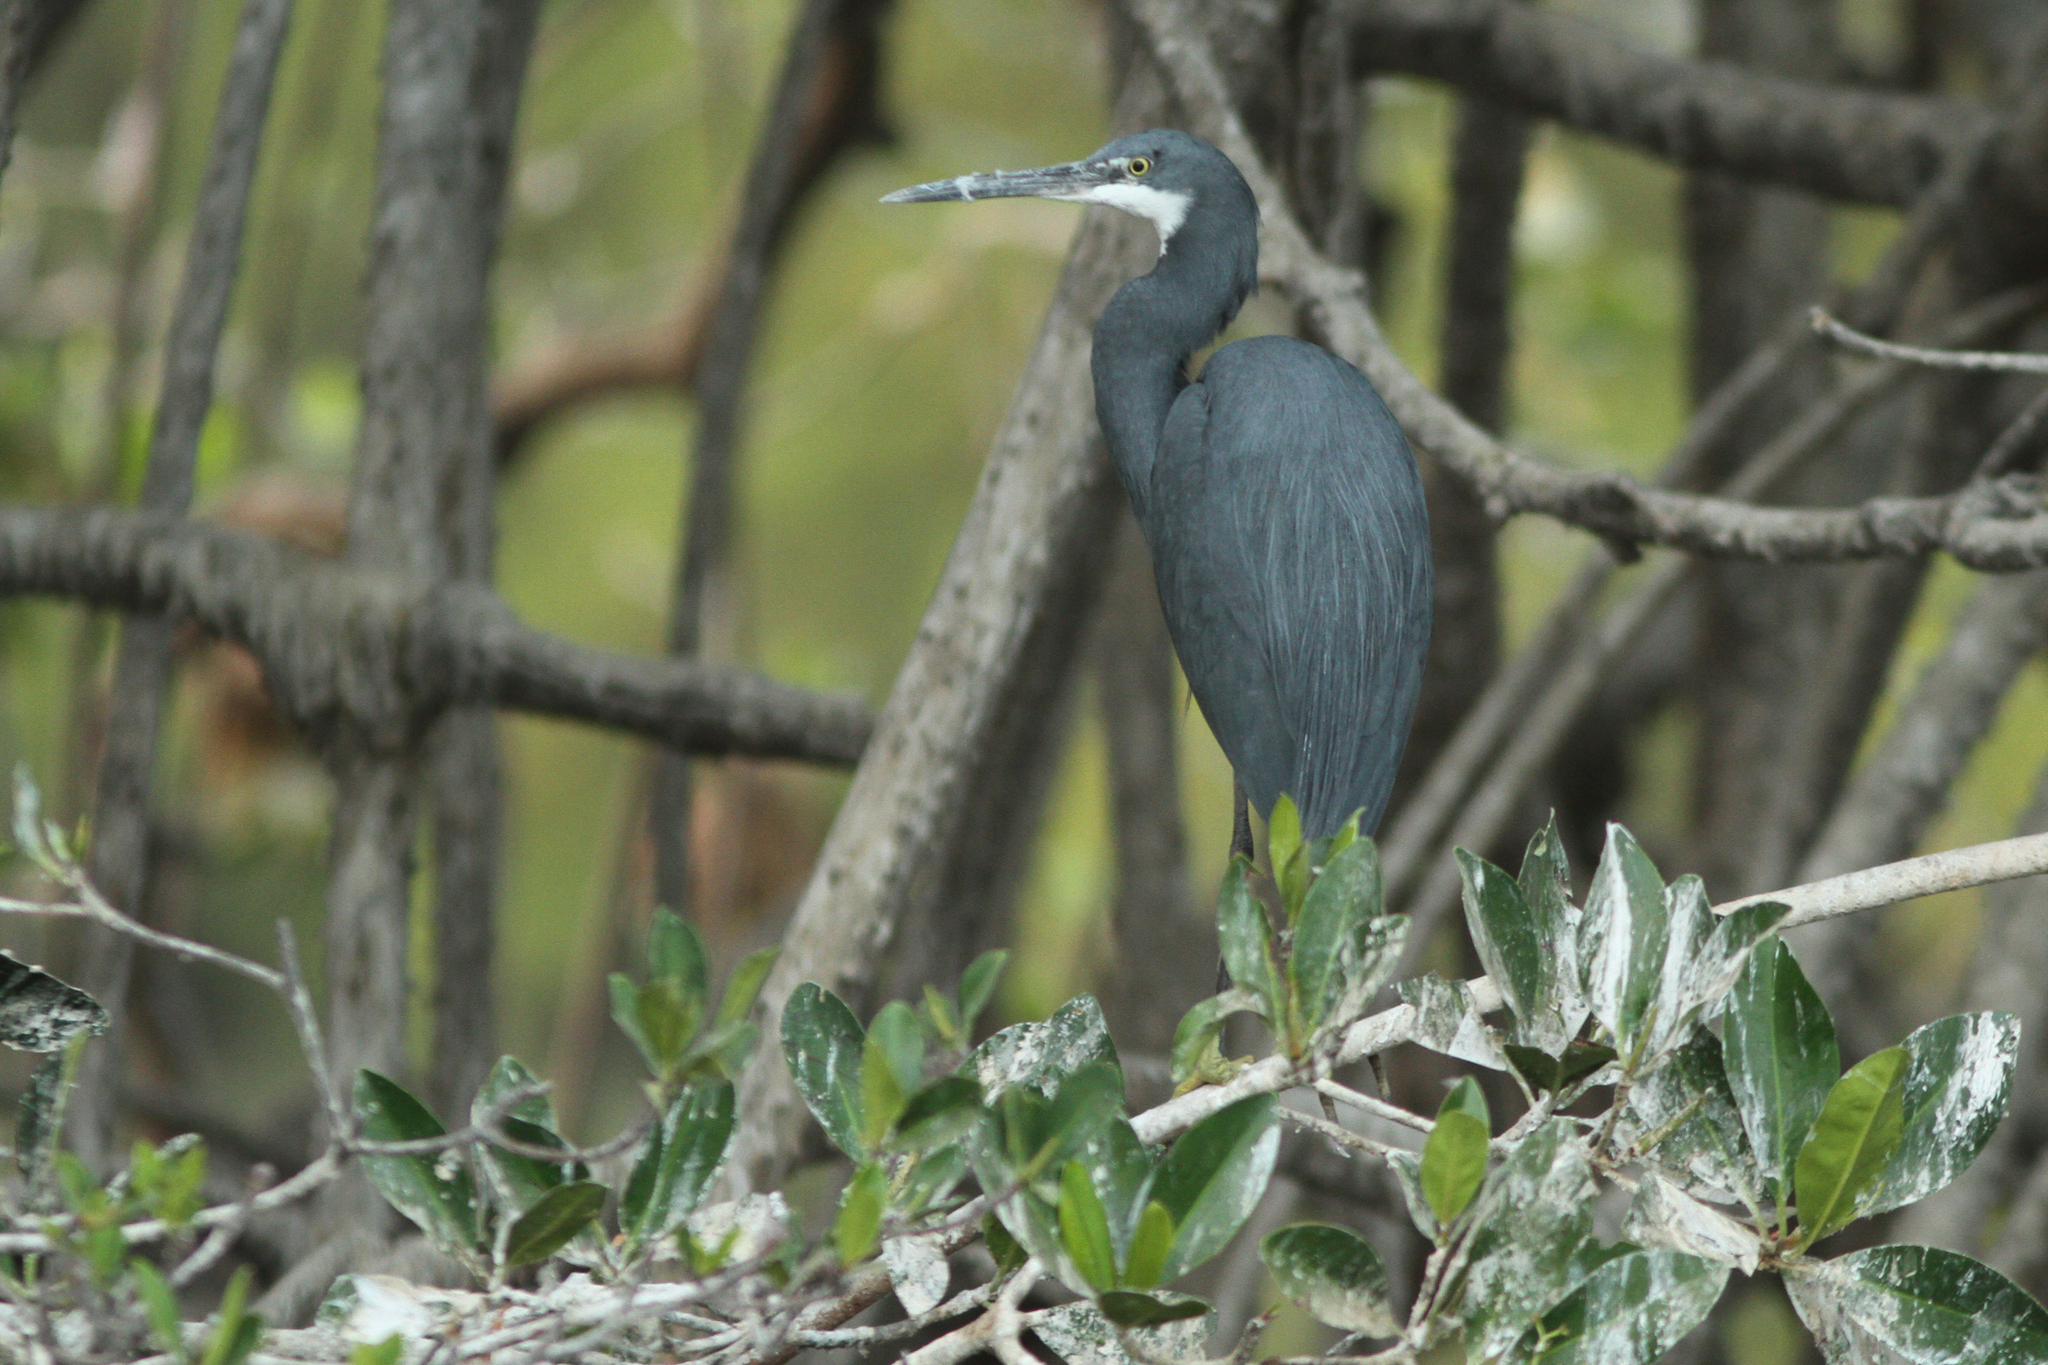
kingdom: Animalia
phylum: Chordata
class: Aves
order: Pelecaniformes
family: Ardeidae
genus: Egretta
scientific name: Egretta gularis
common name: Western reef-heron
